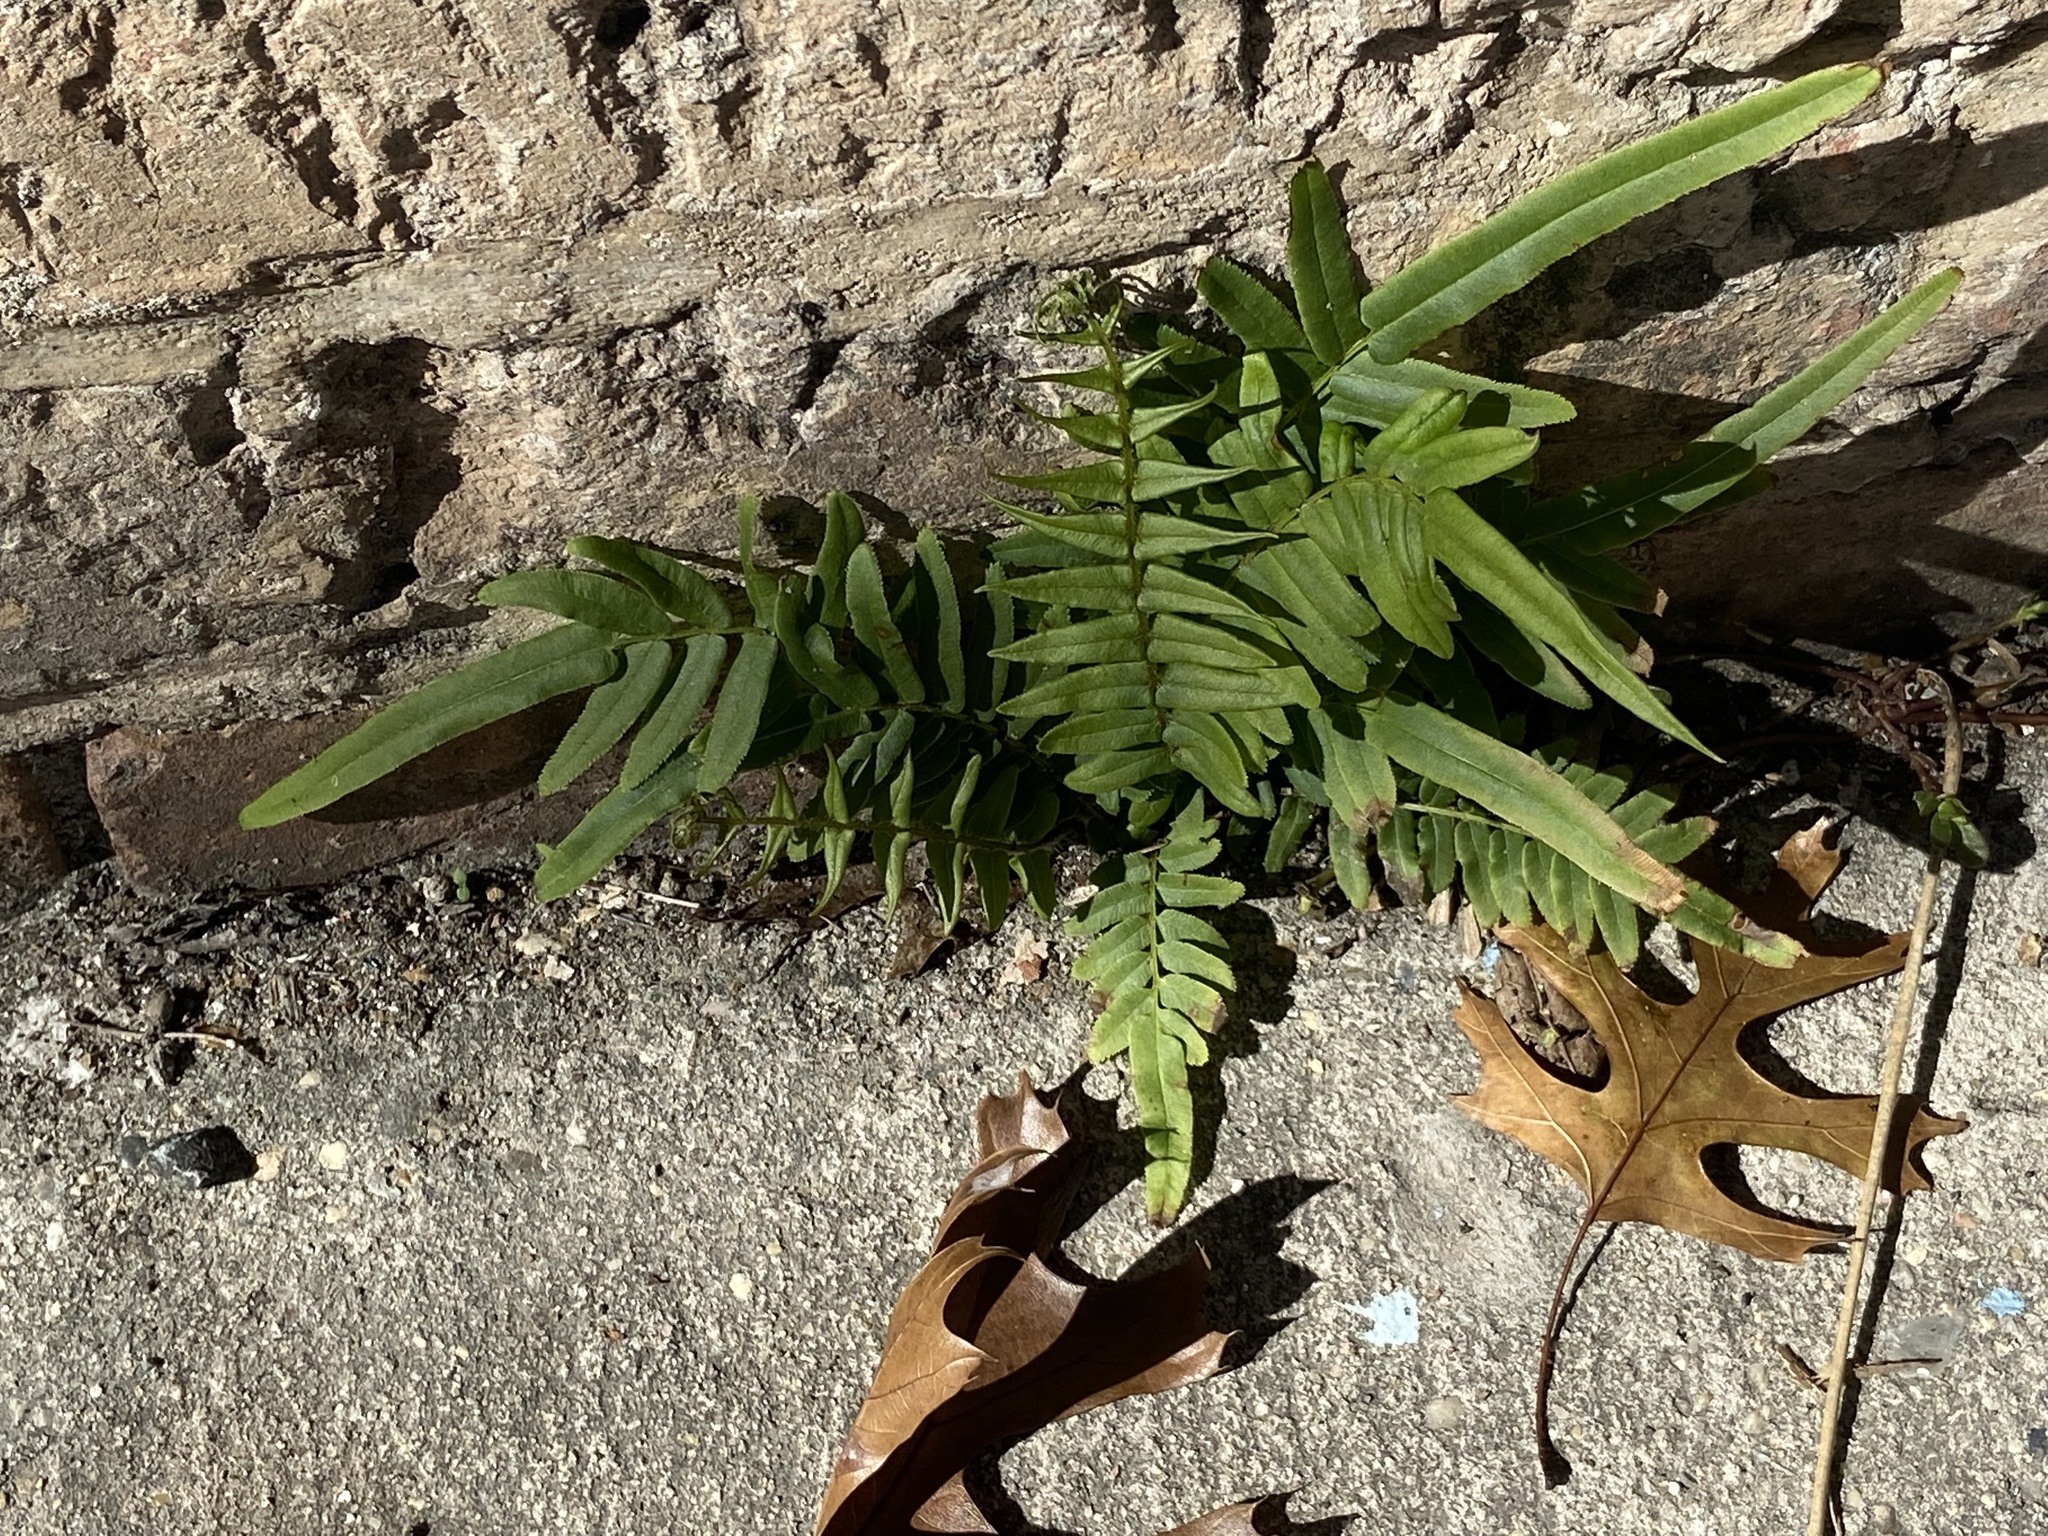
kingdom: Plantae
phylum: Tracheophyta
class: Polypodiopsida
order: Polypodiales
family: Pteridaceae
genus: Pteris
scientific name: Pteris vittata
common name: Ladder brake
